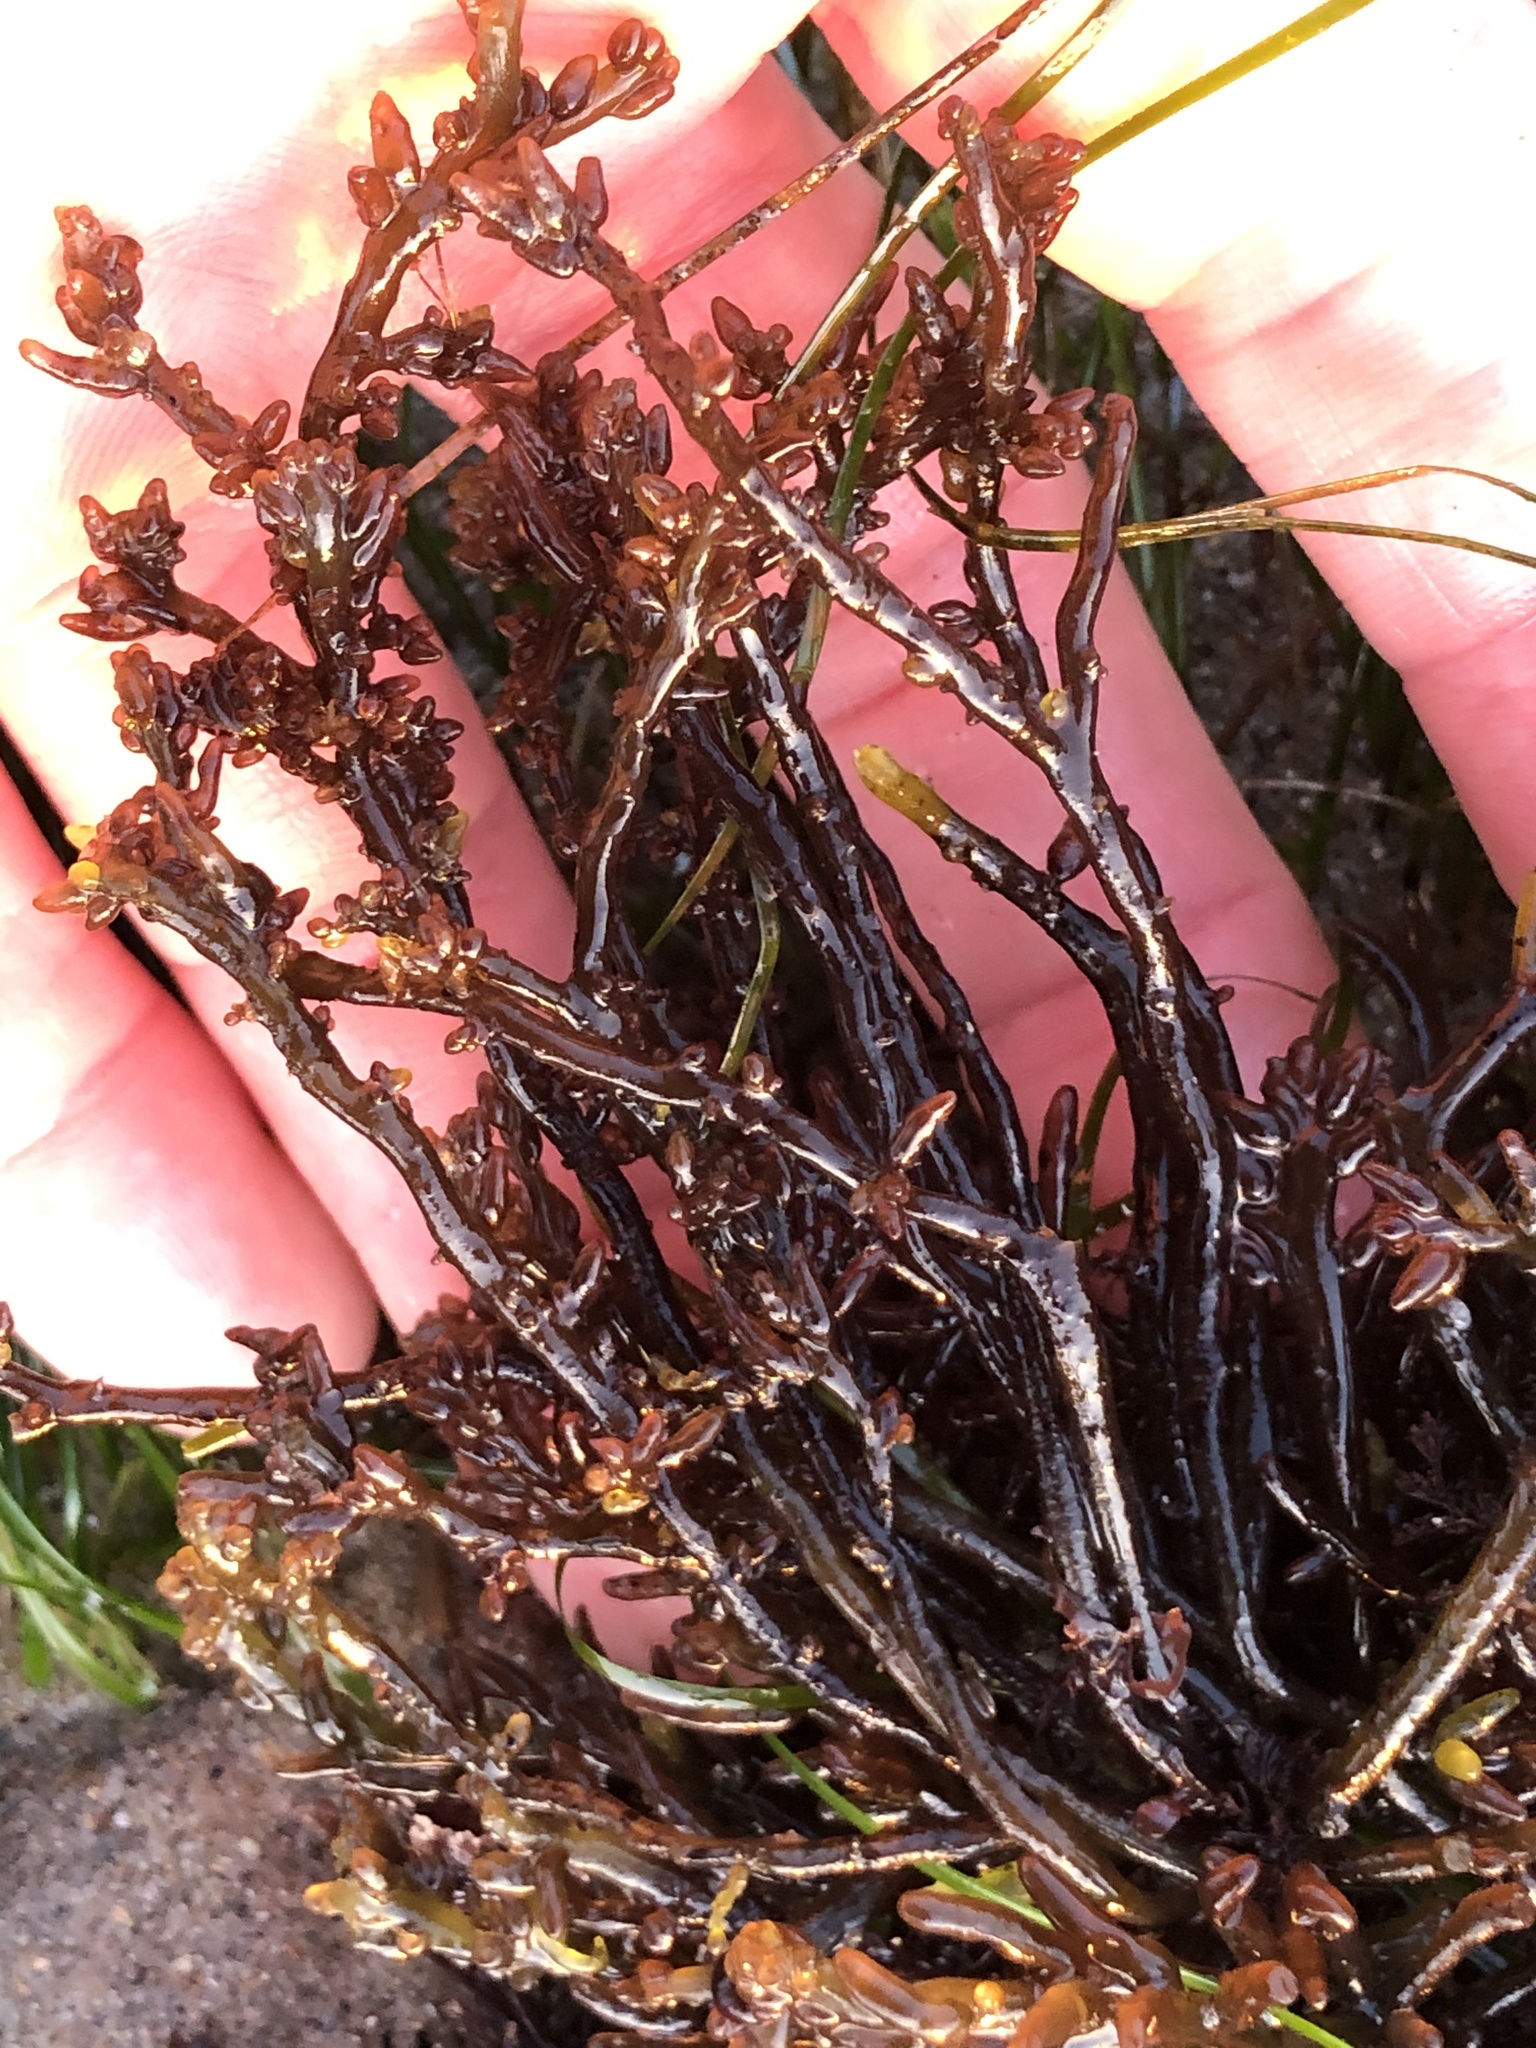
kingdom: Plantae
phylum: Rhodophyta
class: Florideophyceae
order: Rhodymeniales
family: Champiaceae
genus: Neogastroclonium
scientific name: Neogastroclonium subarticulatum
